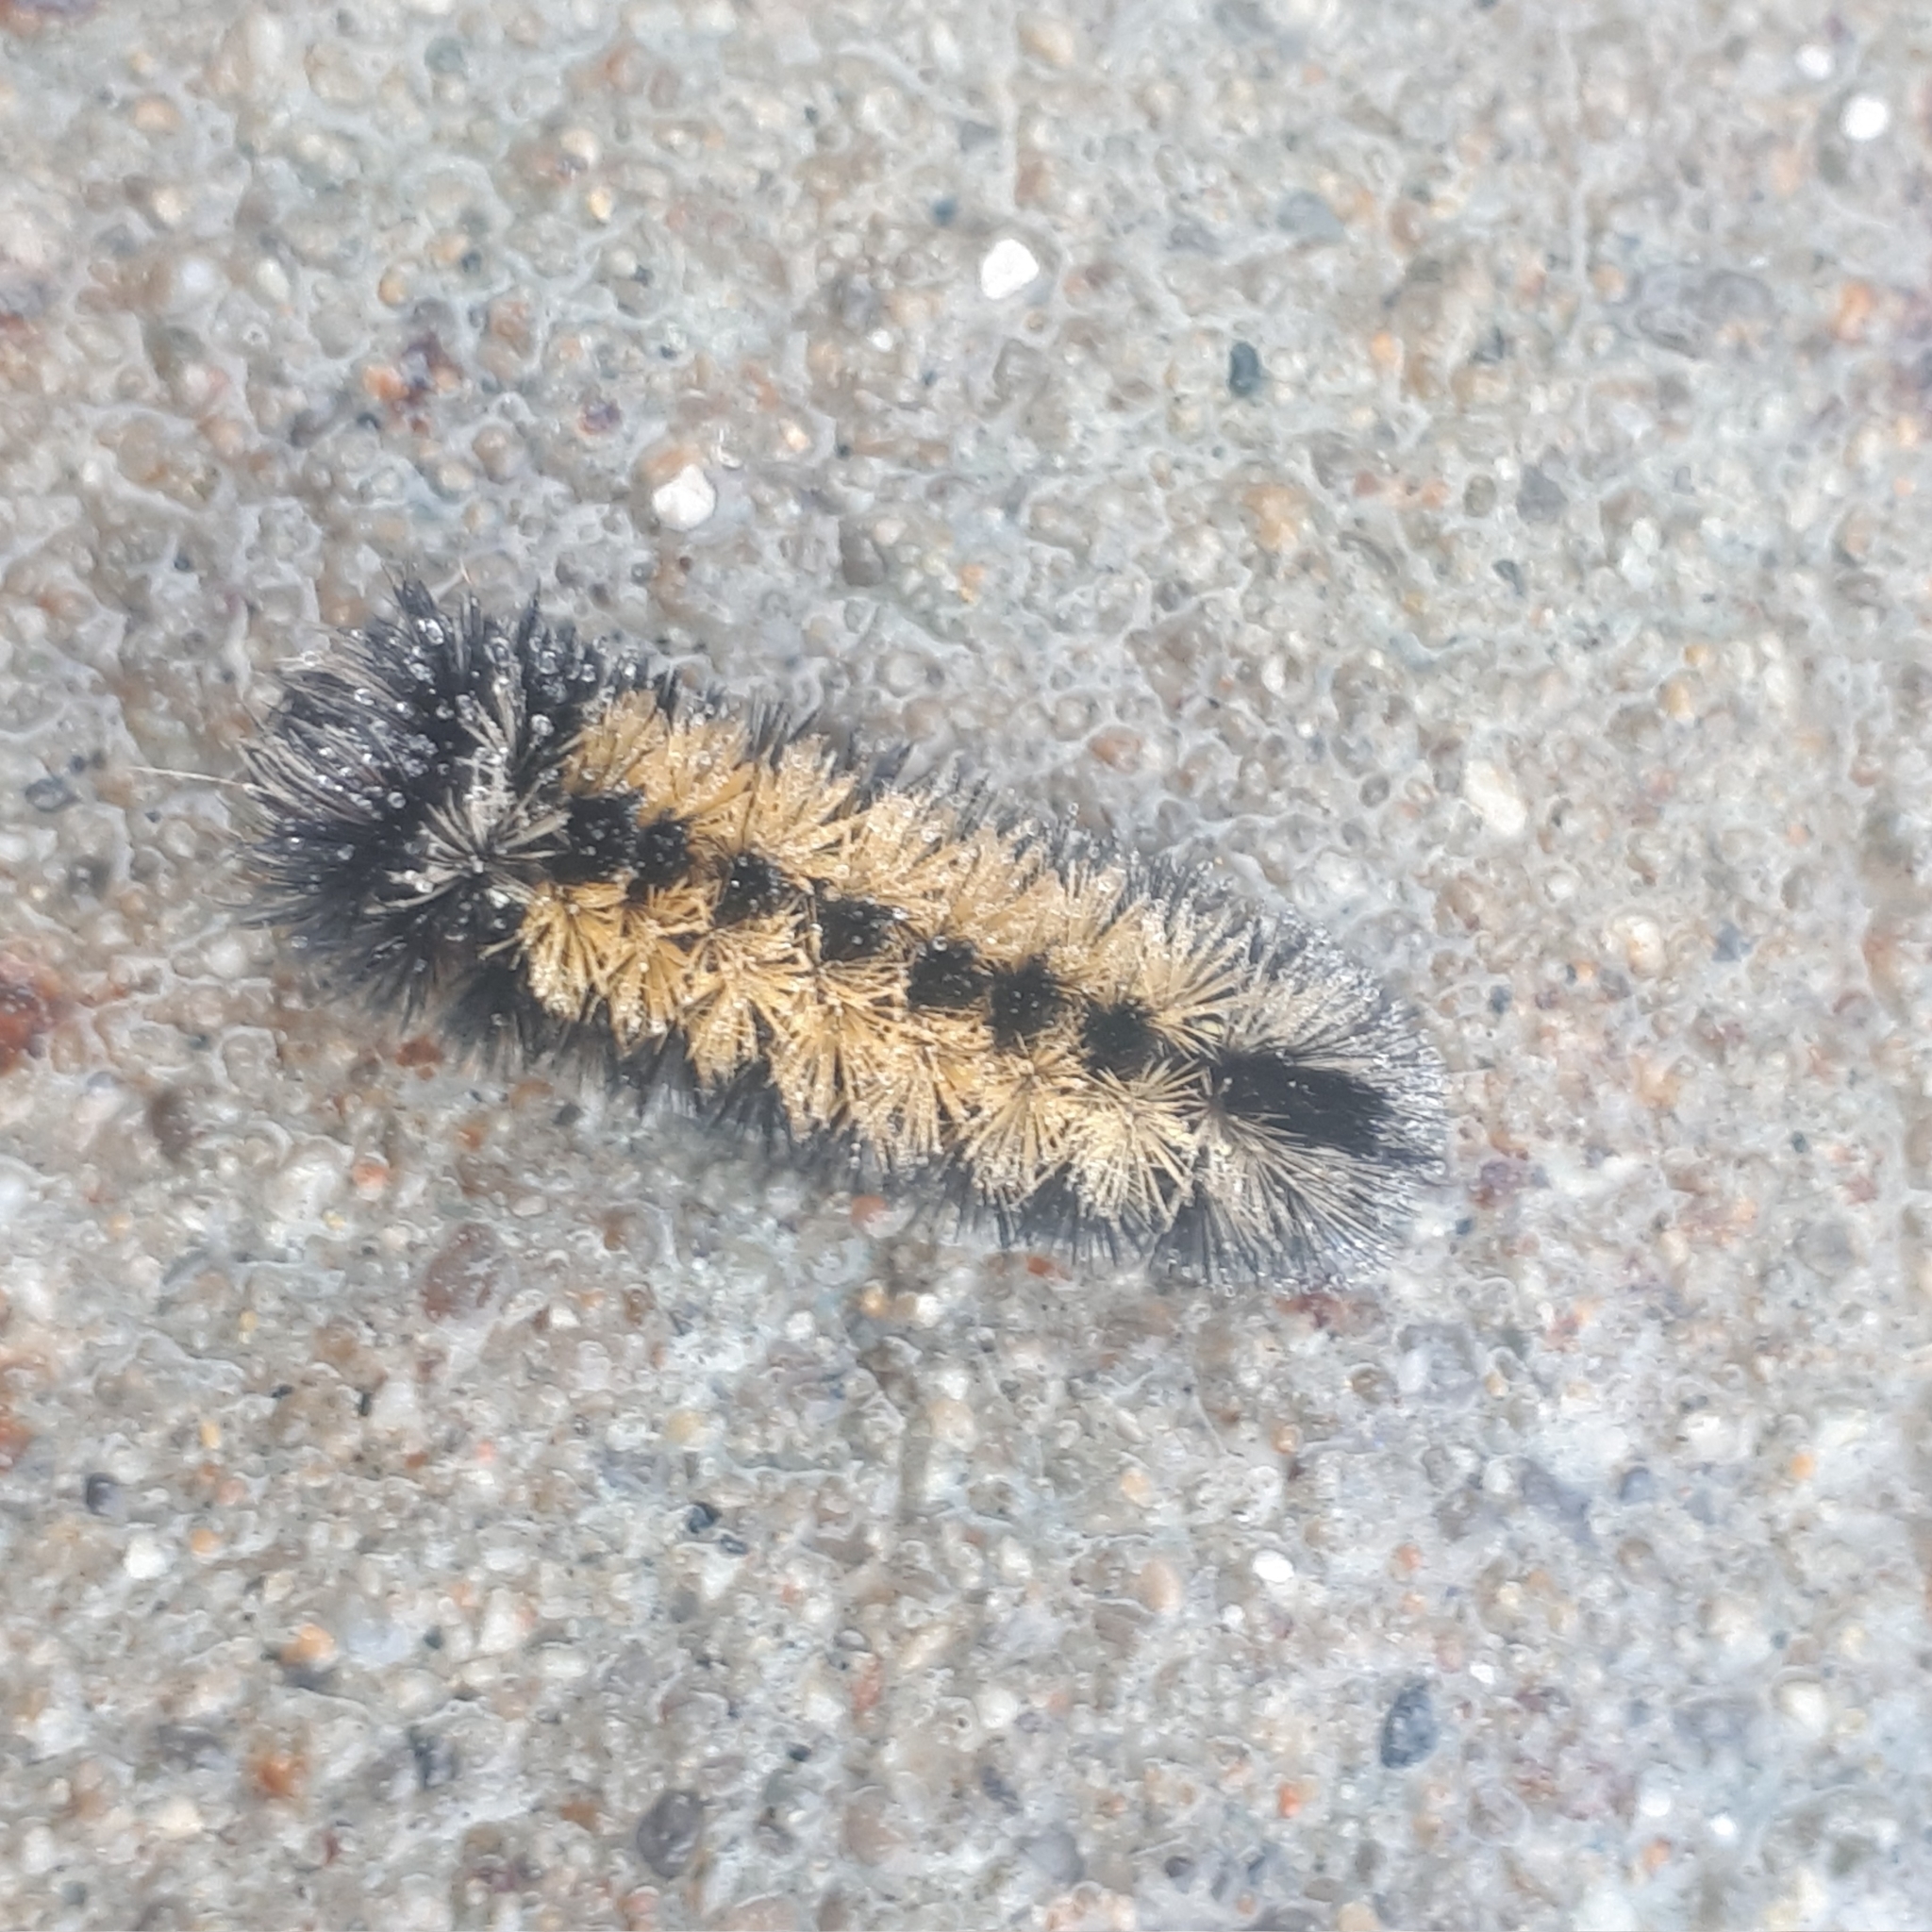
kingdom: Animalia
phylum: Arthropoda
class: Insecta
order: Lepidoptera
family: Erebidae
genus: Ctenucha
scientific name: Ctenucha virginica
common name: Virginia ctenucha moth
